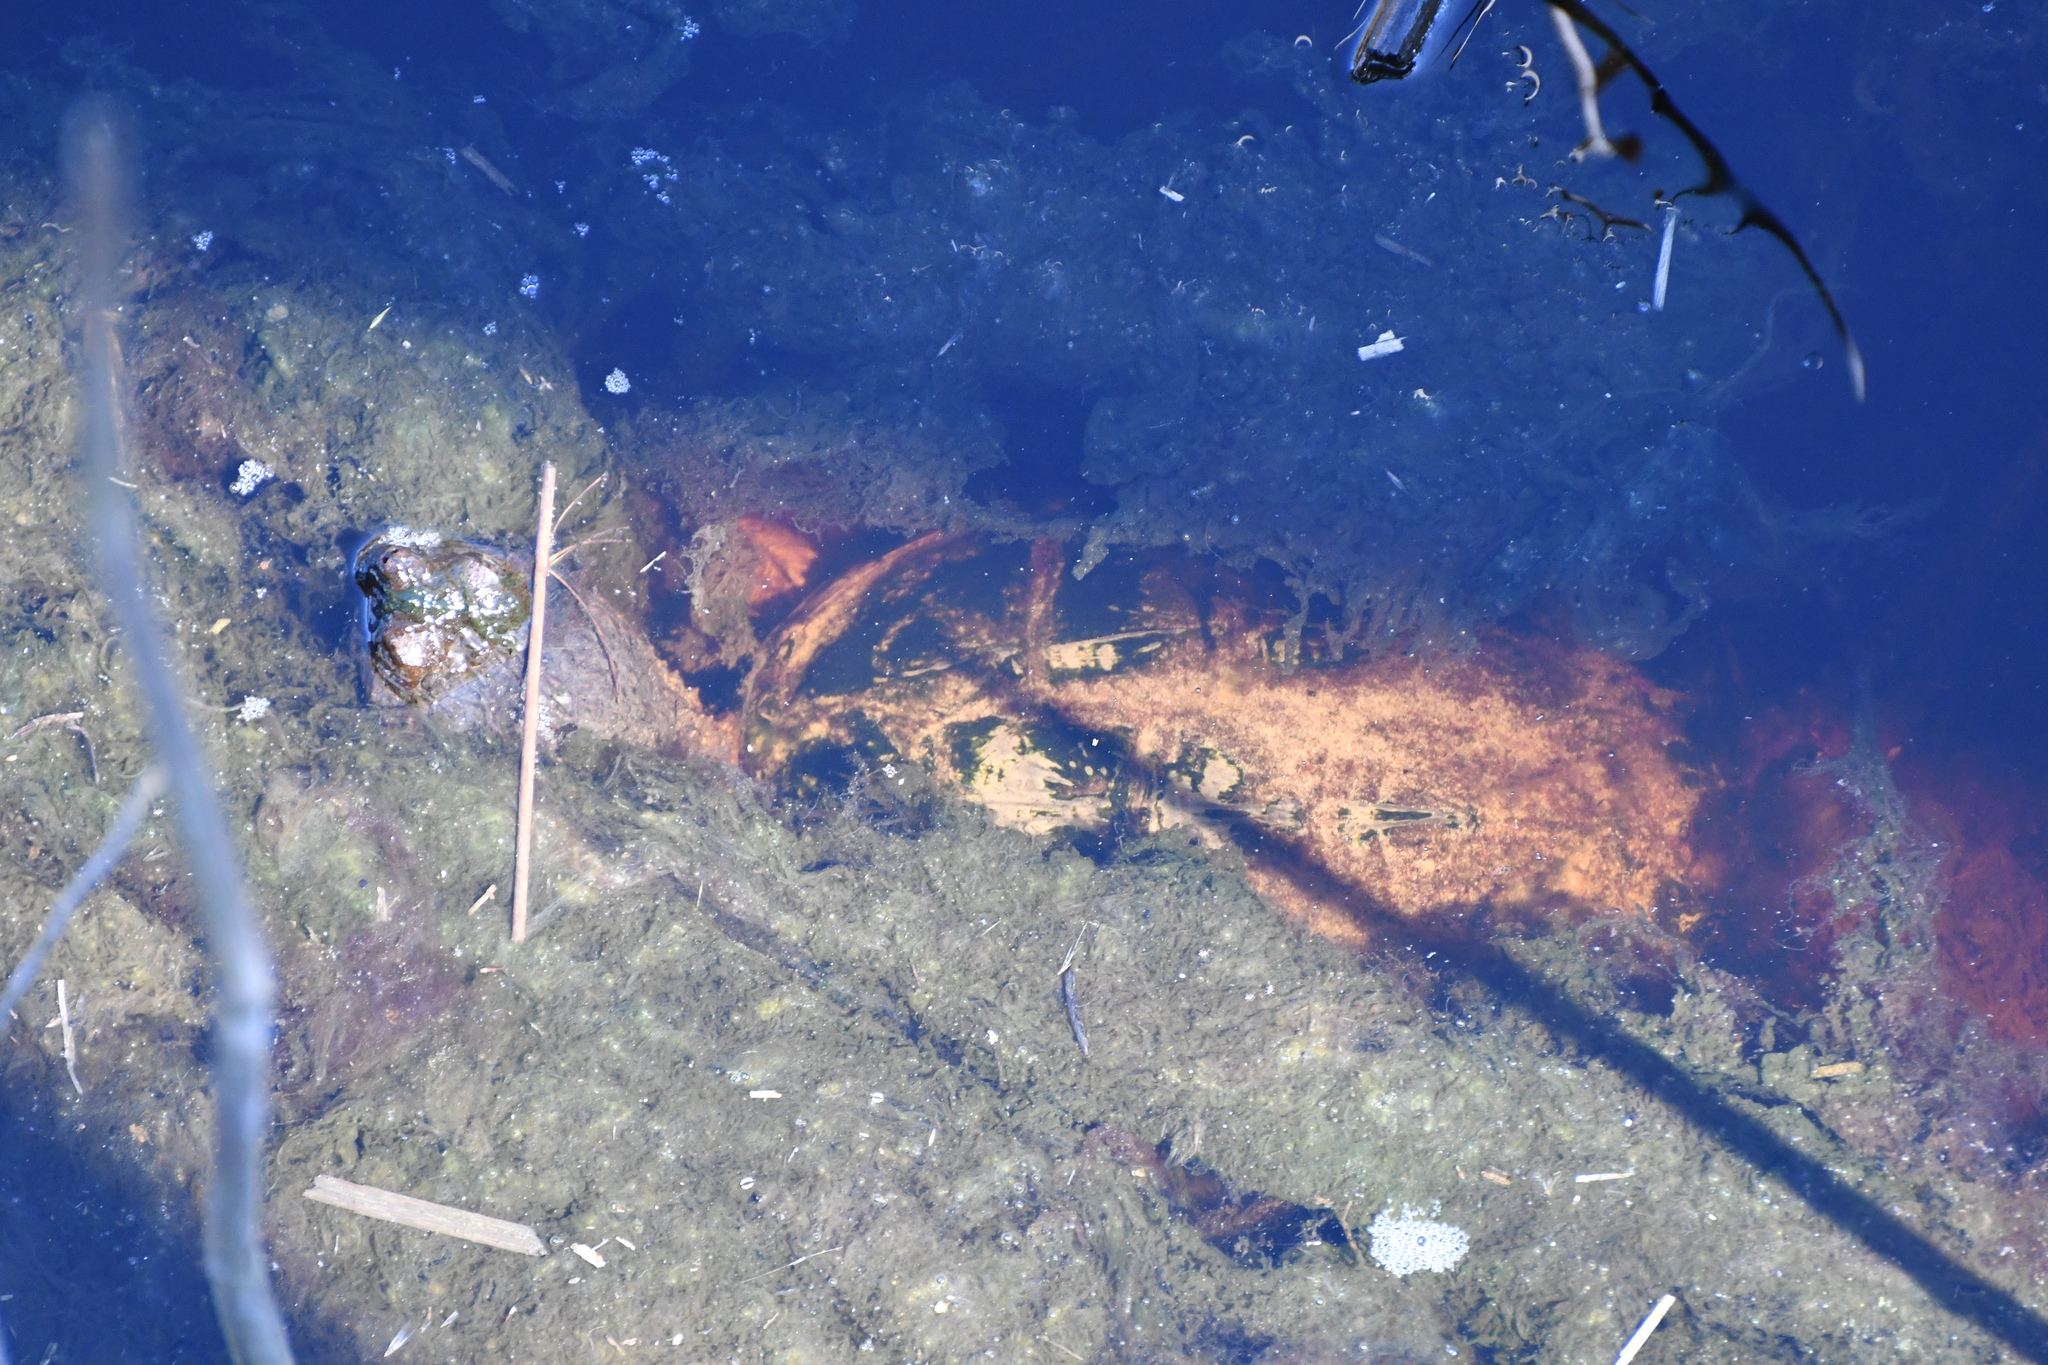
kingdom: Animalia
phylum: Chordata
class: Testudines
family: Chelydridae
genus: Chelydra
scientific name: Chelydra serpentina
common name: Common snapping turtle
